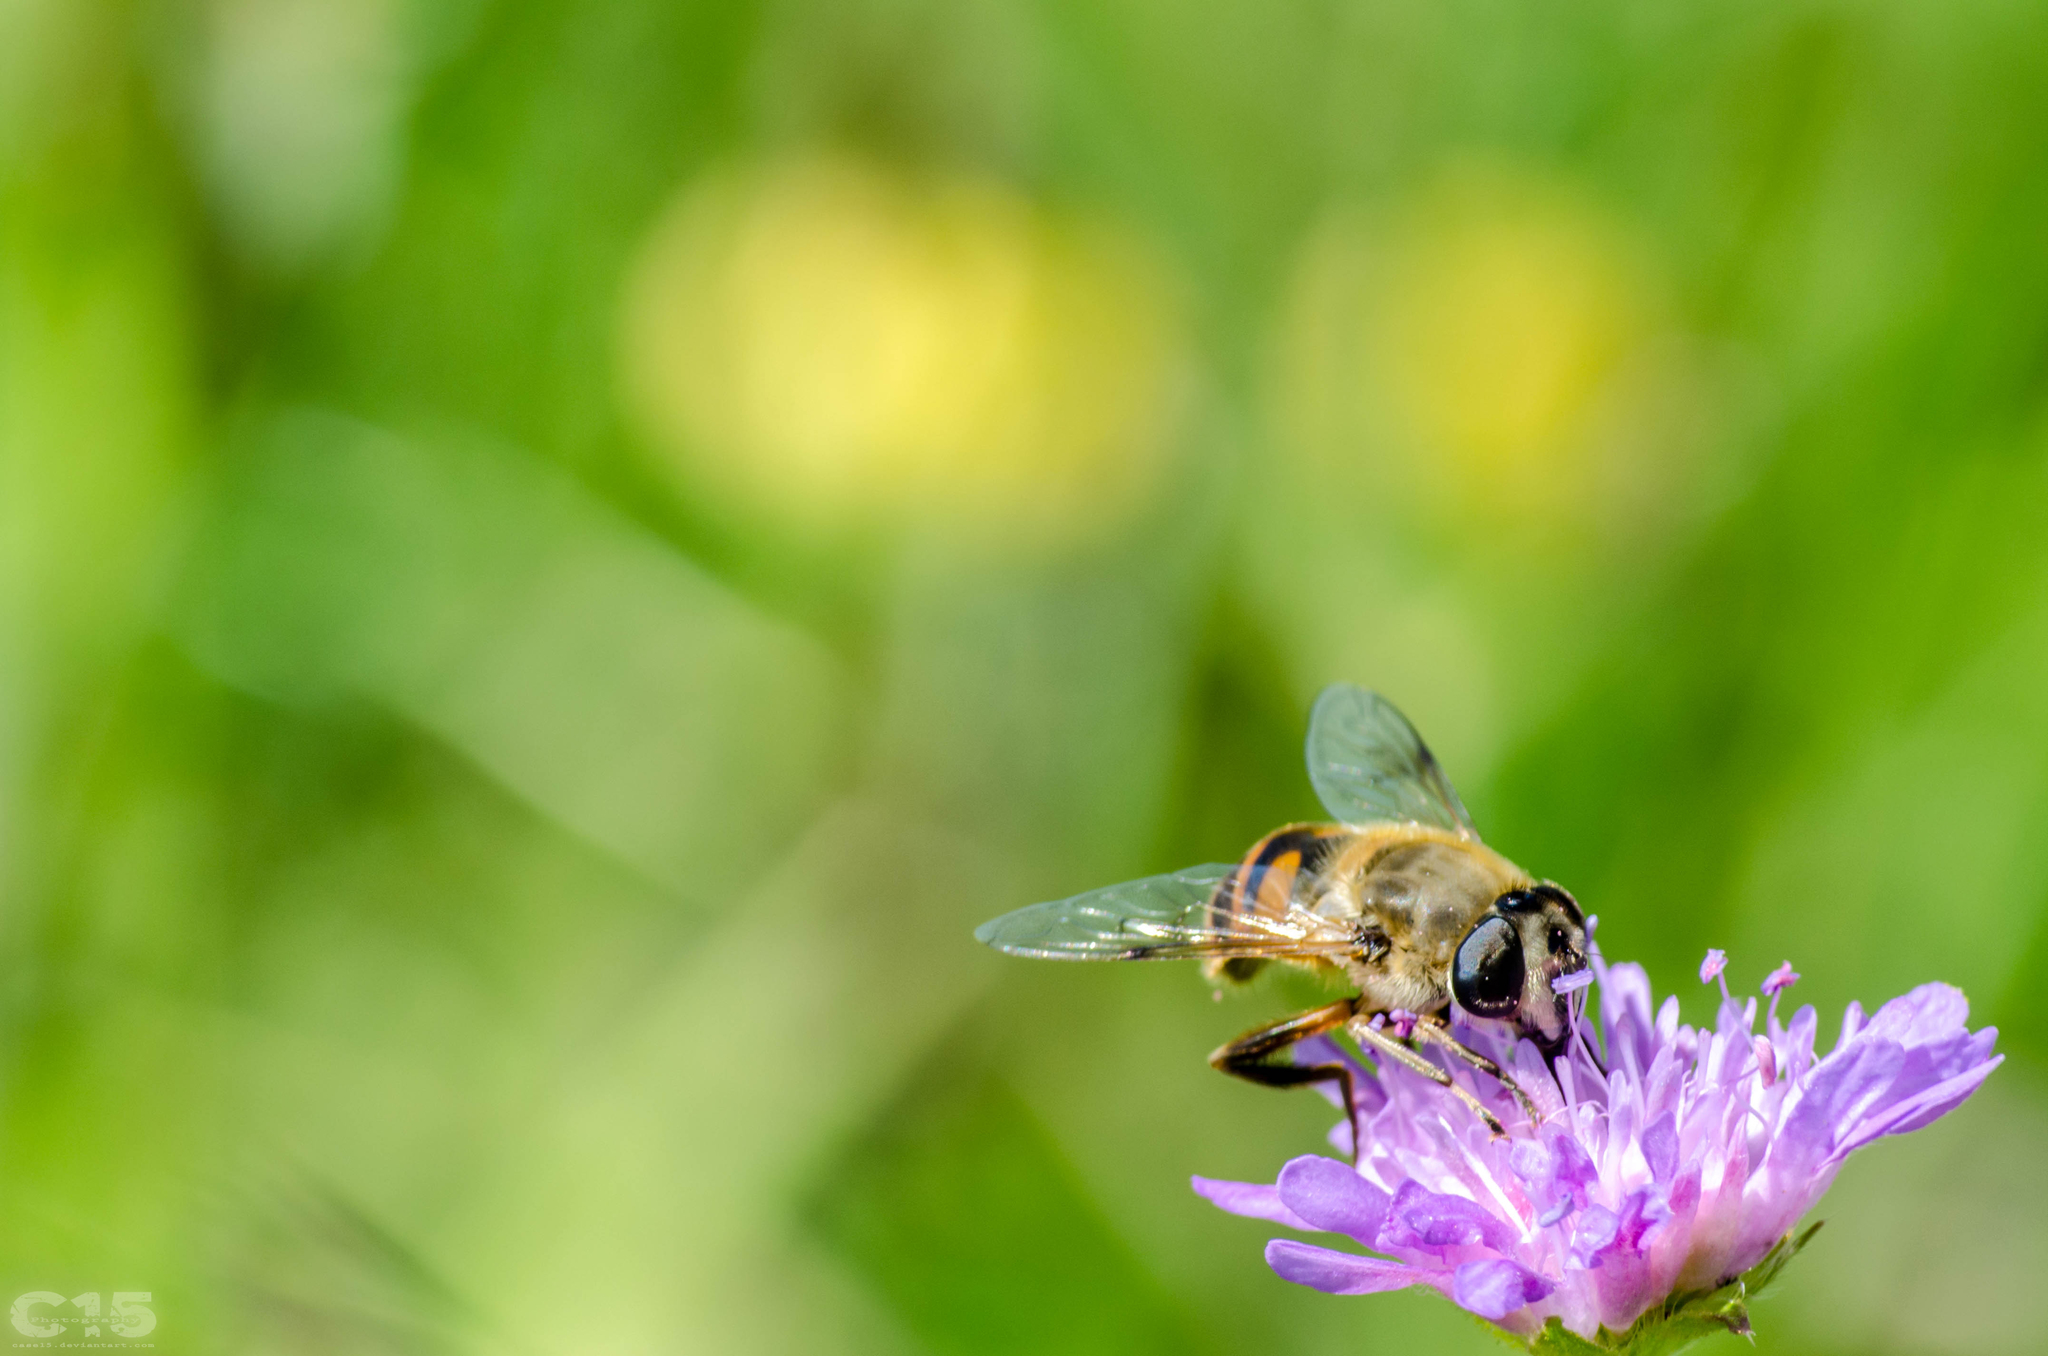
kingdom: Animalia
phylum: Arthropoda
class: Insecta
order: Diptera
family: Syrphidae
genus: Eristalis
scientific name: Eristalis tenax
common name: Drone fly
